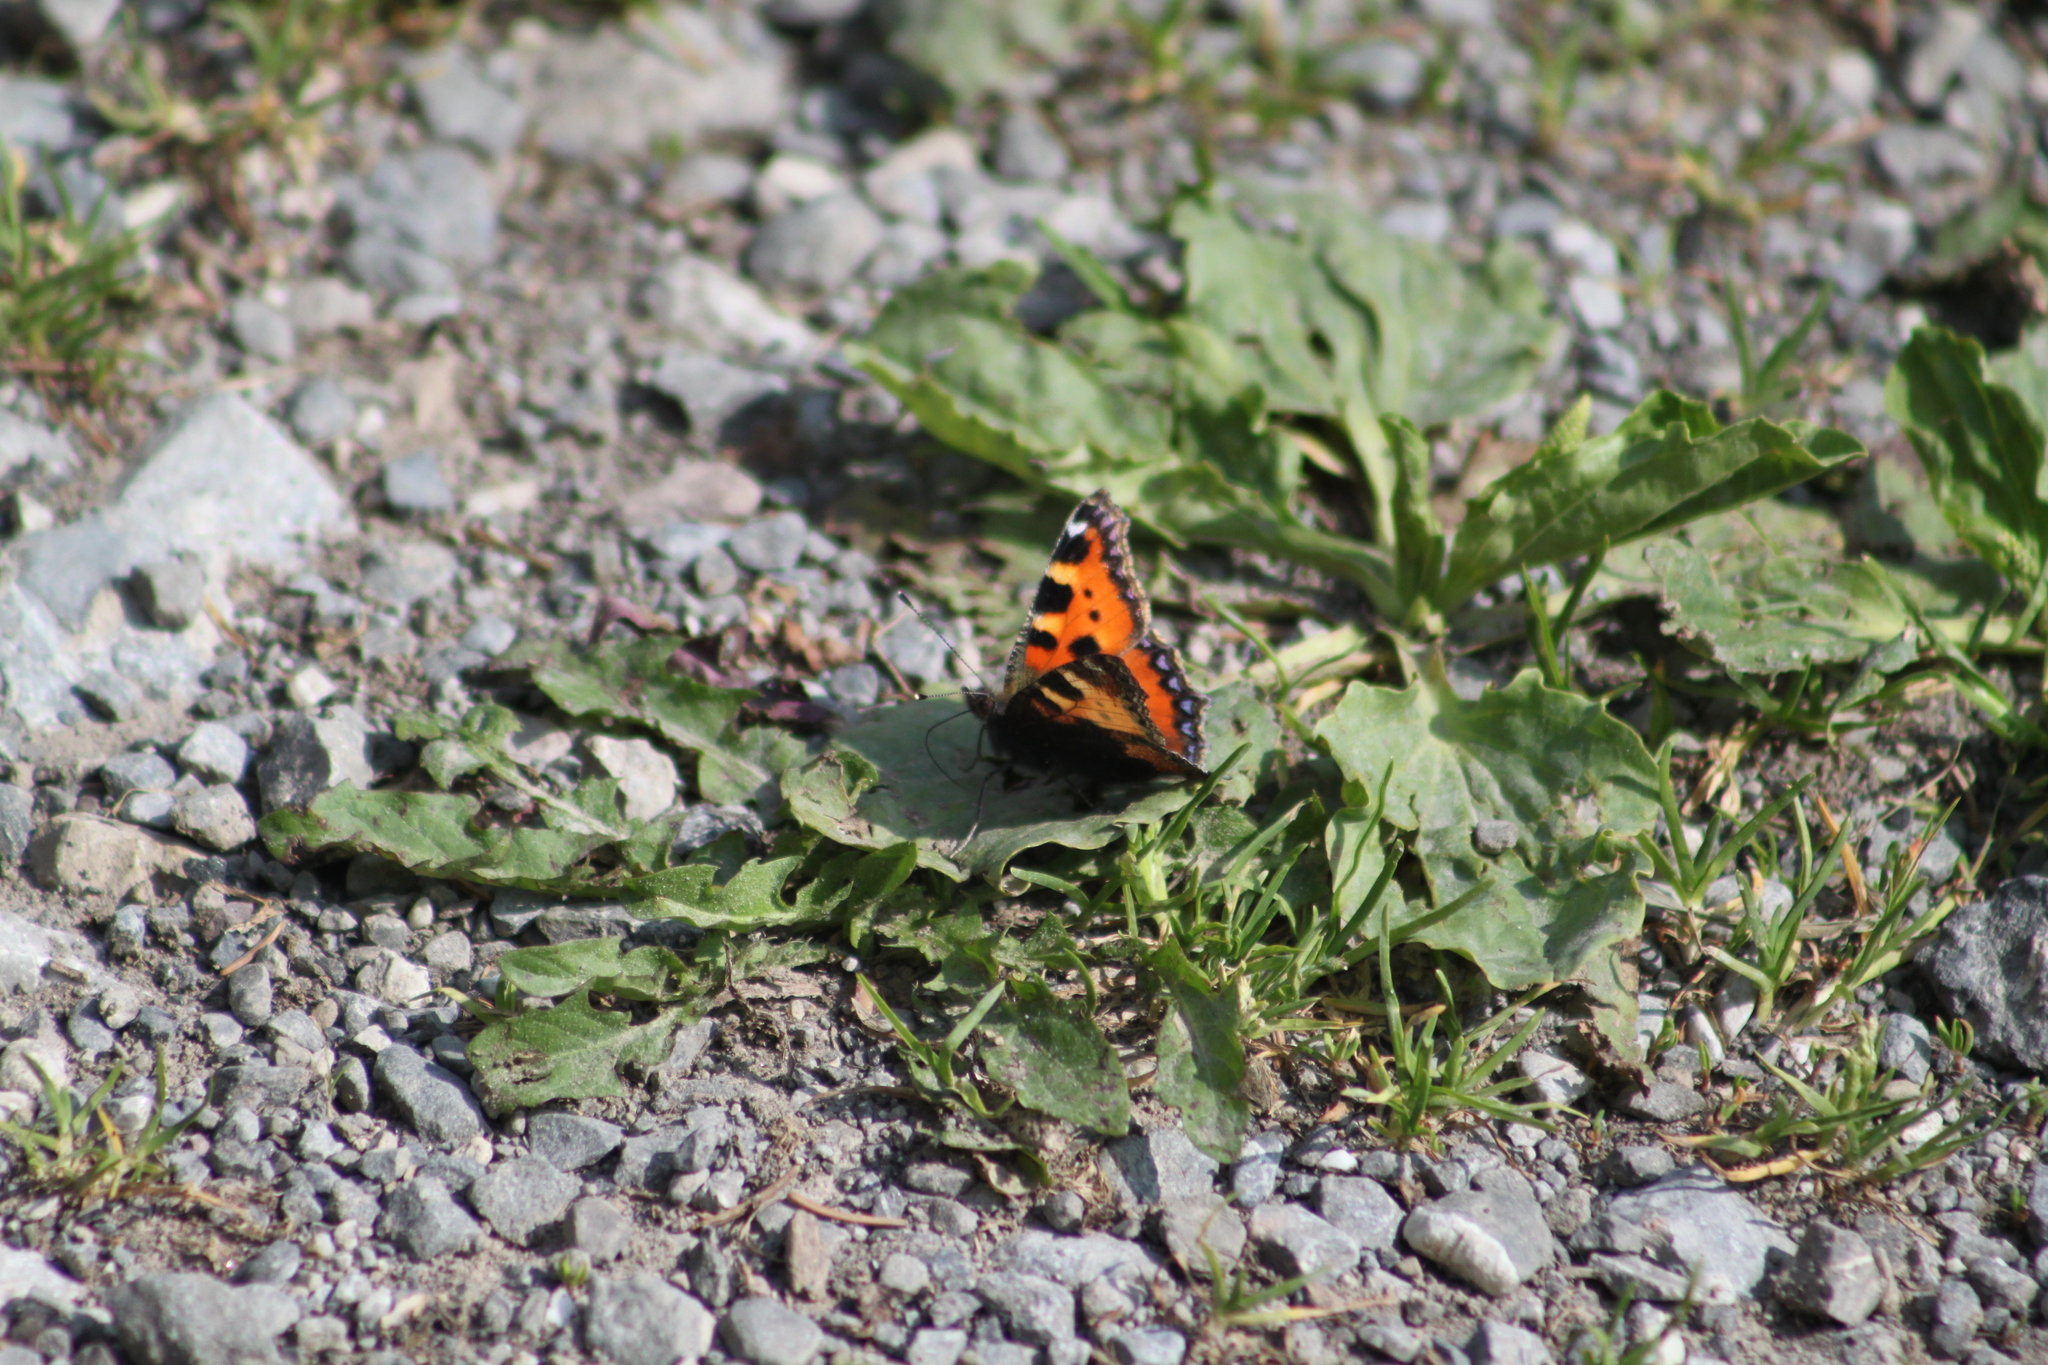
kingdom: Animalia
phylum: Arthropoda
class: Insecta
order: Lepidoptera
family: Nymphalidae
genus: Aglais
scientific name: Aglais urticae
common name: Small tortoiseshell
